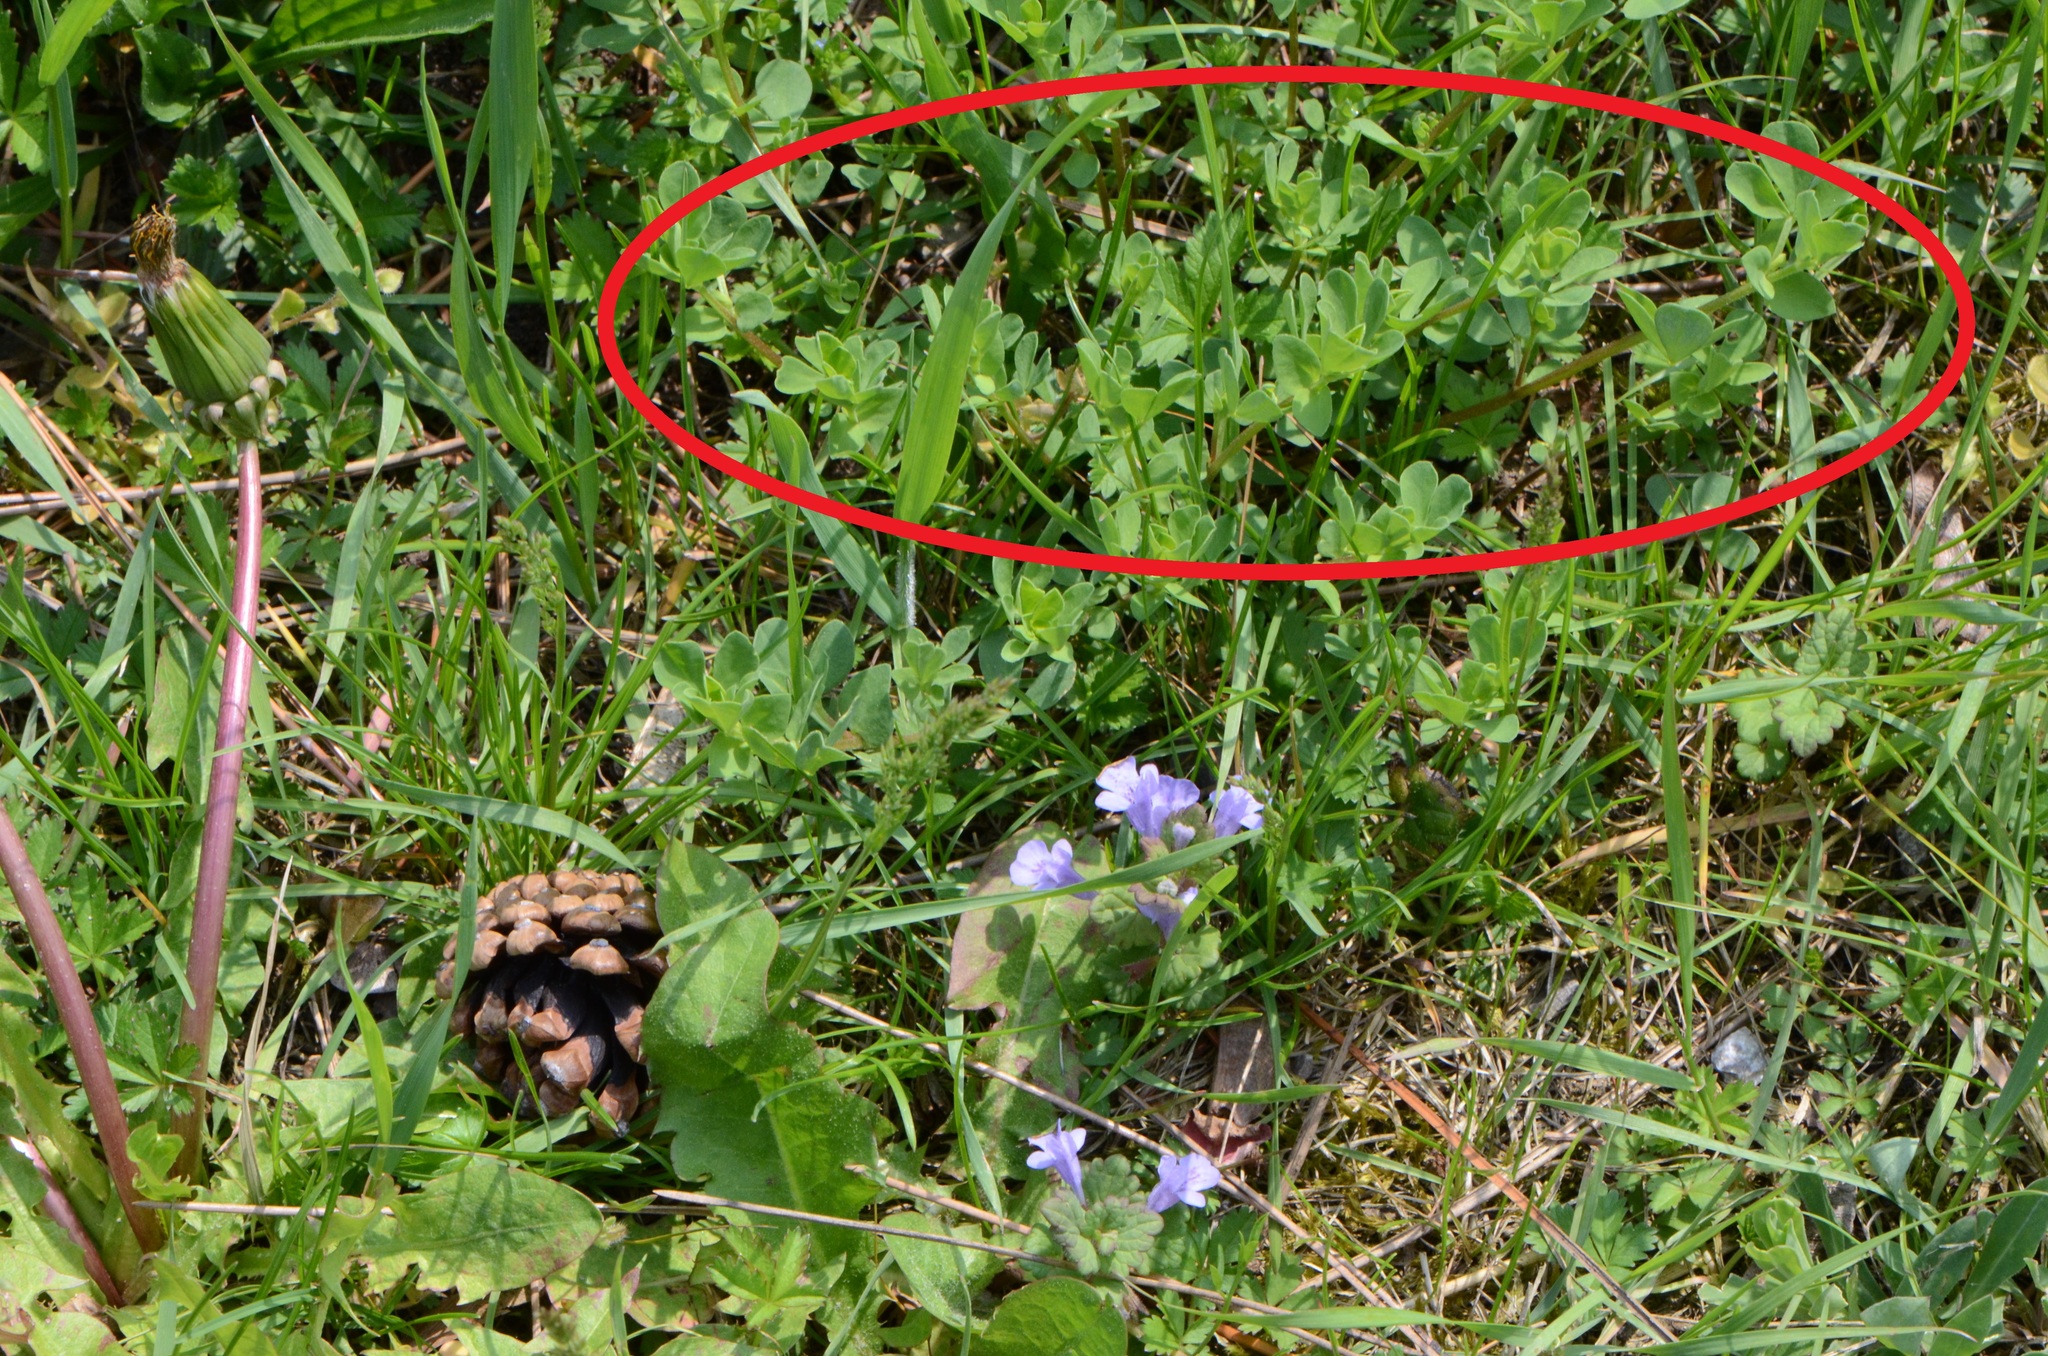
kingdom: Plantae
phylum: Tracheophyta
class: Magnoliopsida
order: Fabales
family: Fabaceae
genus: Lotus
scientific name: Lotus corniculatus
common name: Common bird's-foot-trefoil
